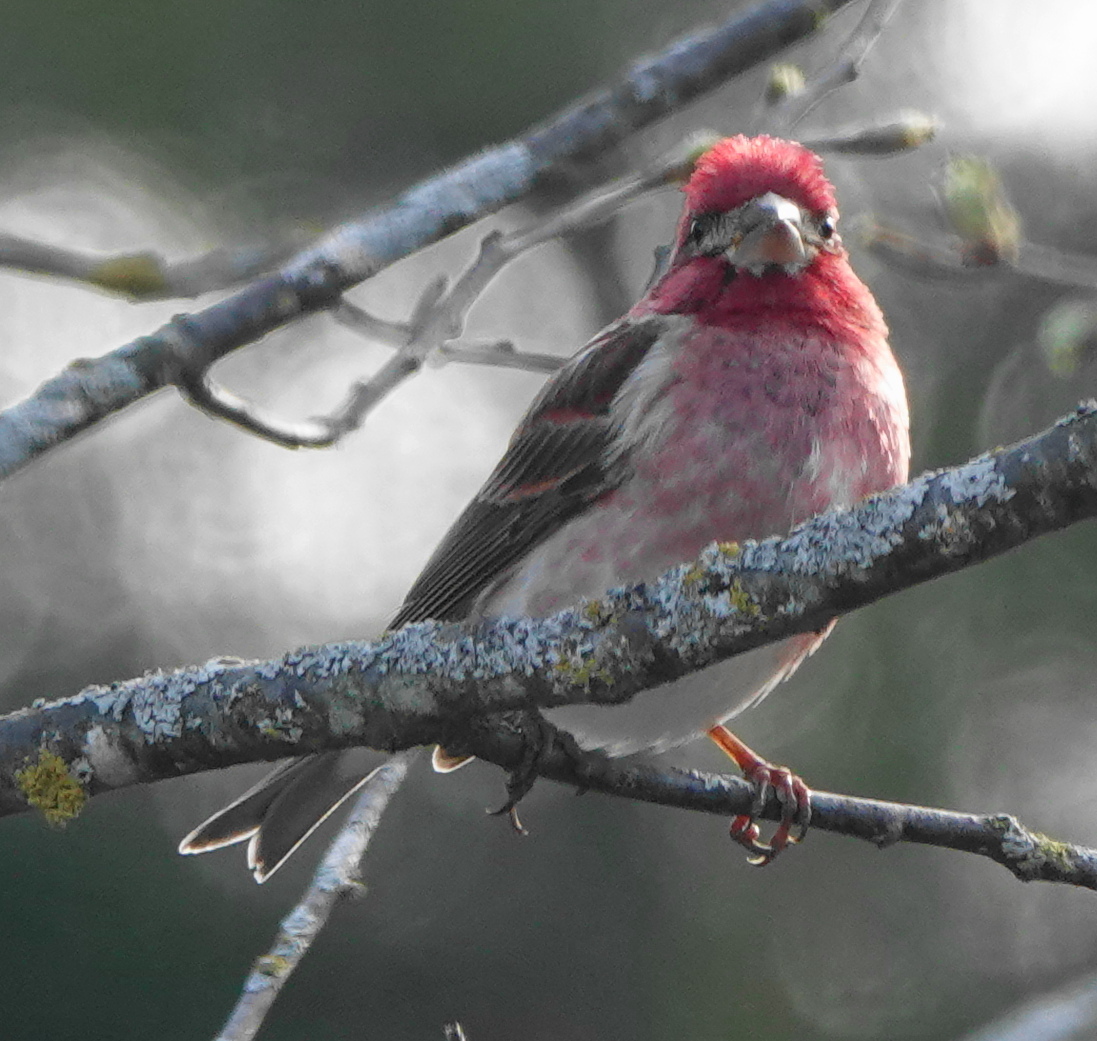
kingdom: Animalia
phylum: Chordata
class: Aves
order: Passeriformes
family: Fringillidae
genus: Haemorhous
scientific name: Haemorhous purpureus
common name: Purple finch
